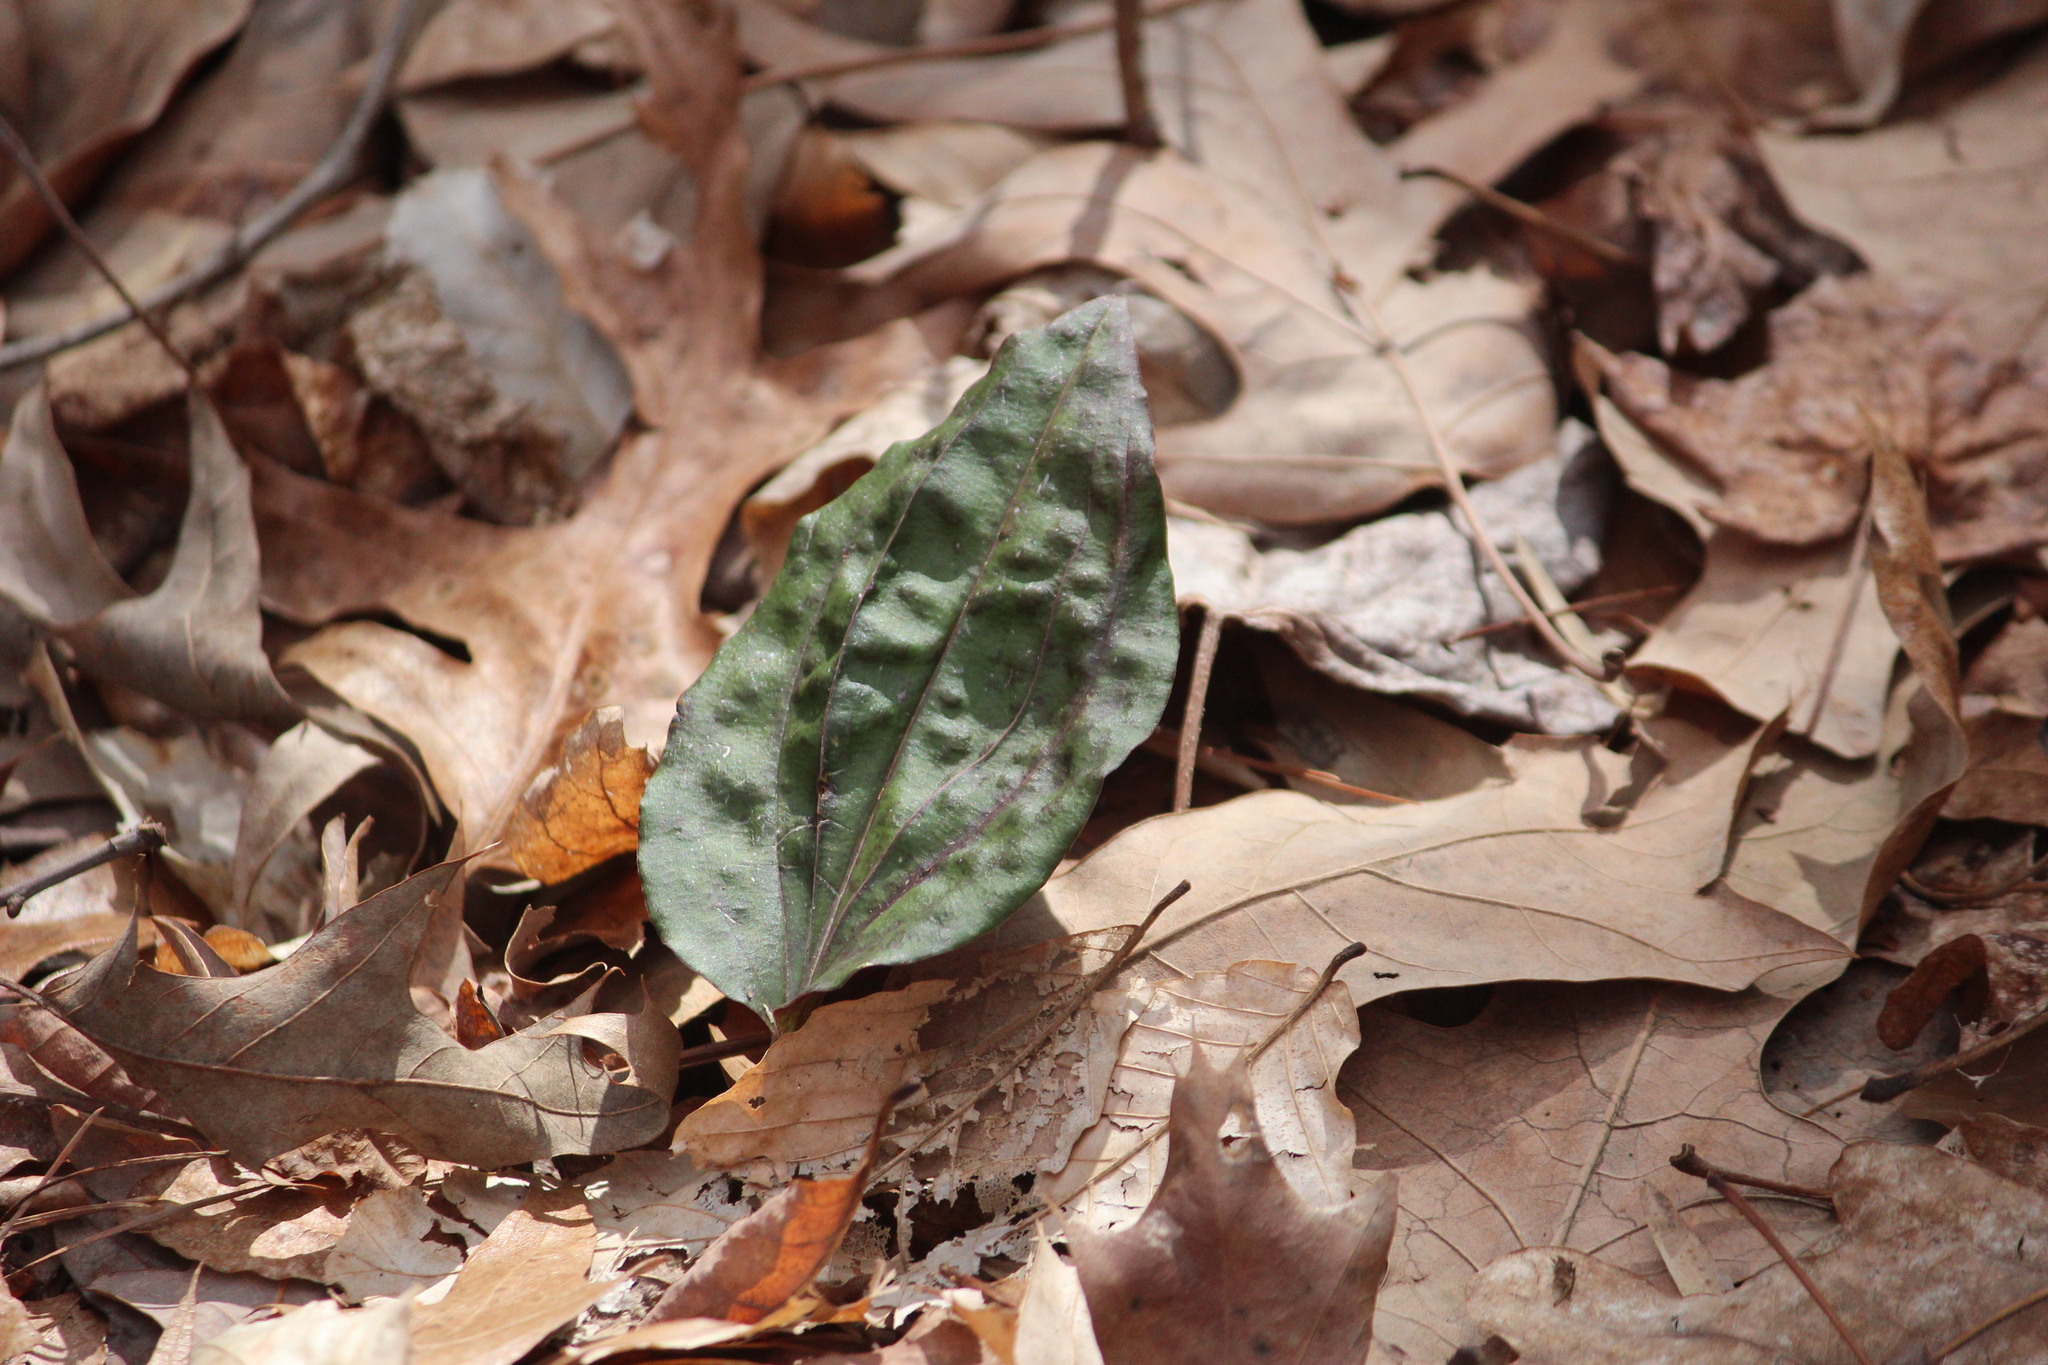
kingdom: Plantae
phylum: Tracheophyta
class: Liliopsida
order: Asparagales
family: Orchidaceae
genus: Tipularia
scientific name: Tipularia discolor
